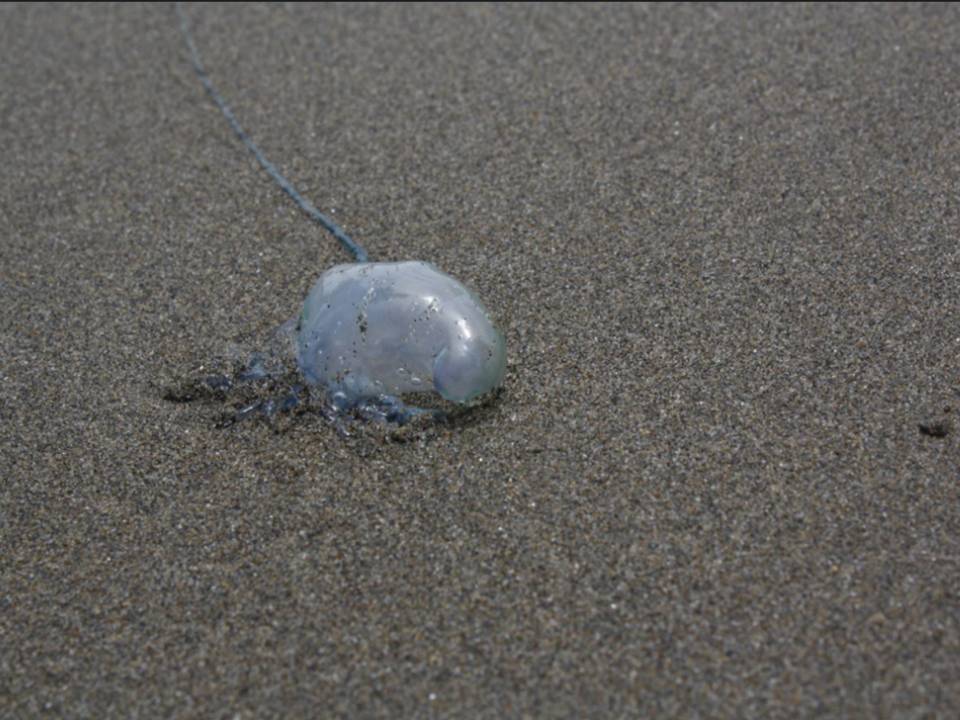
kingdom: Animalia
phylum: Cnidaria
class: Hydrozoa
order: Siphonophorae
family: Physaliidae
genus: Physalia
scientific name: Physalia physalis
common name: Portuguese man-of-war
